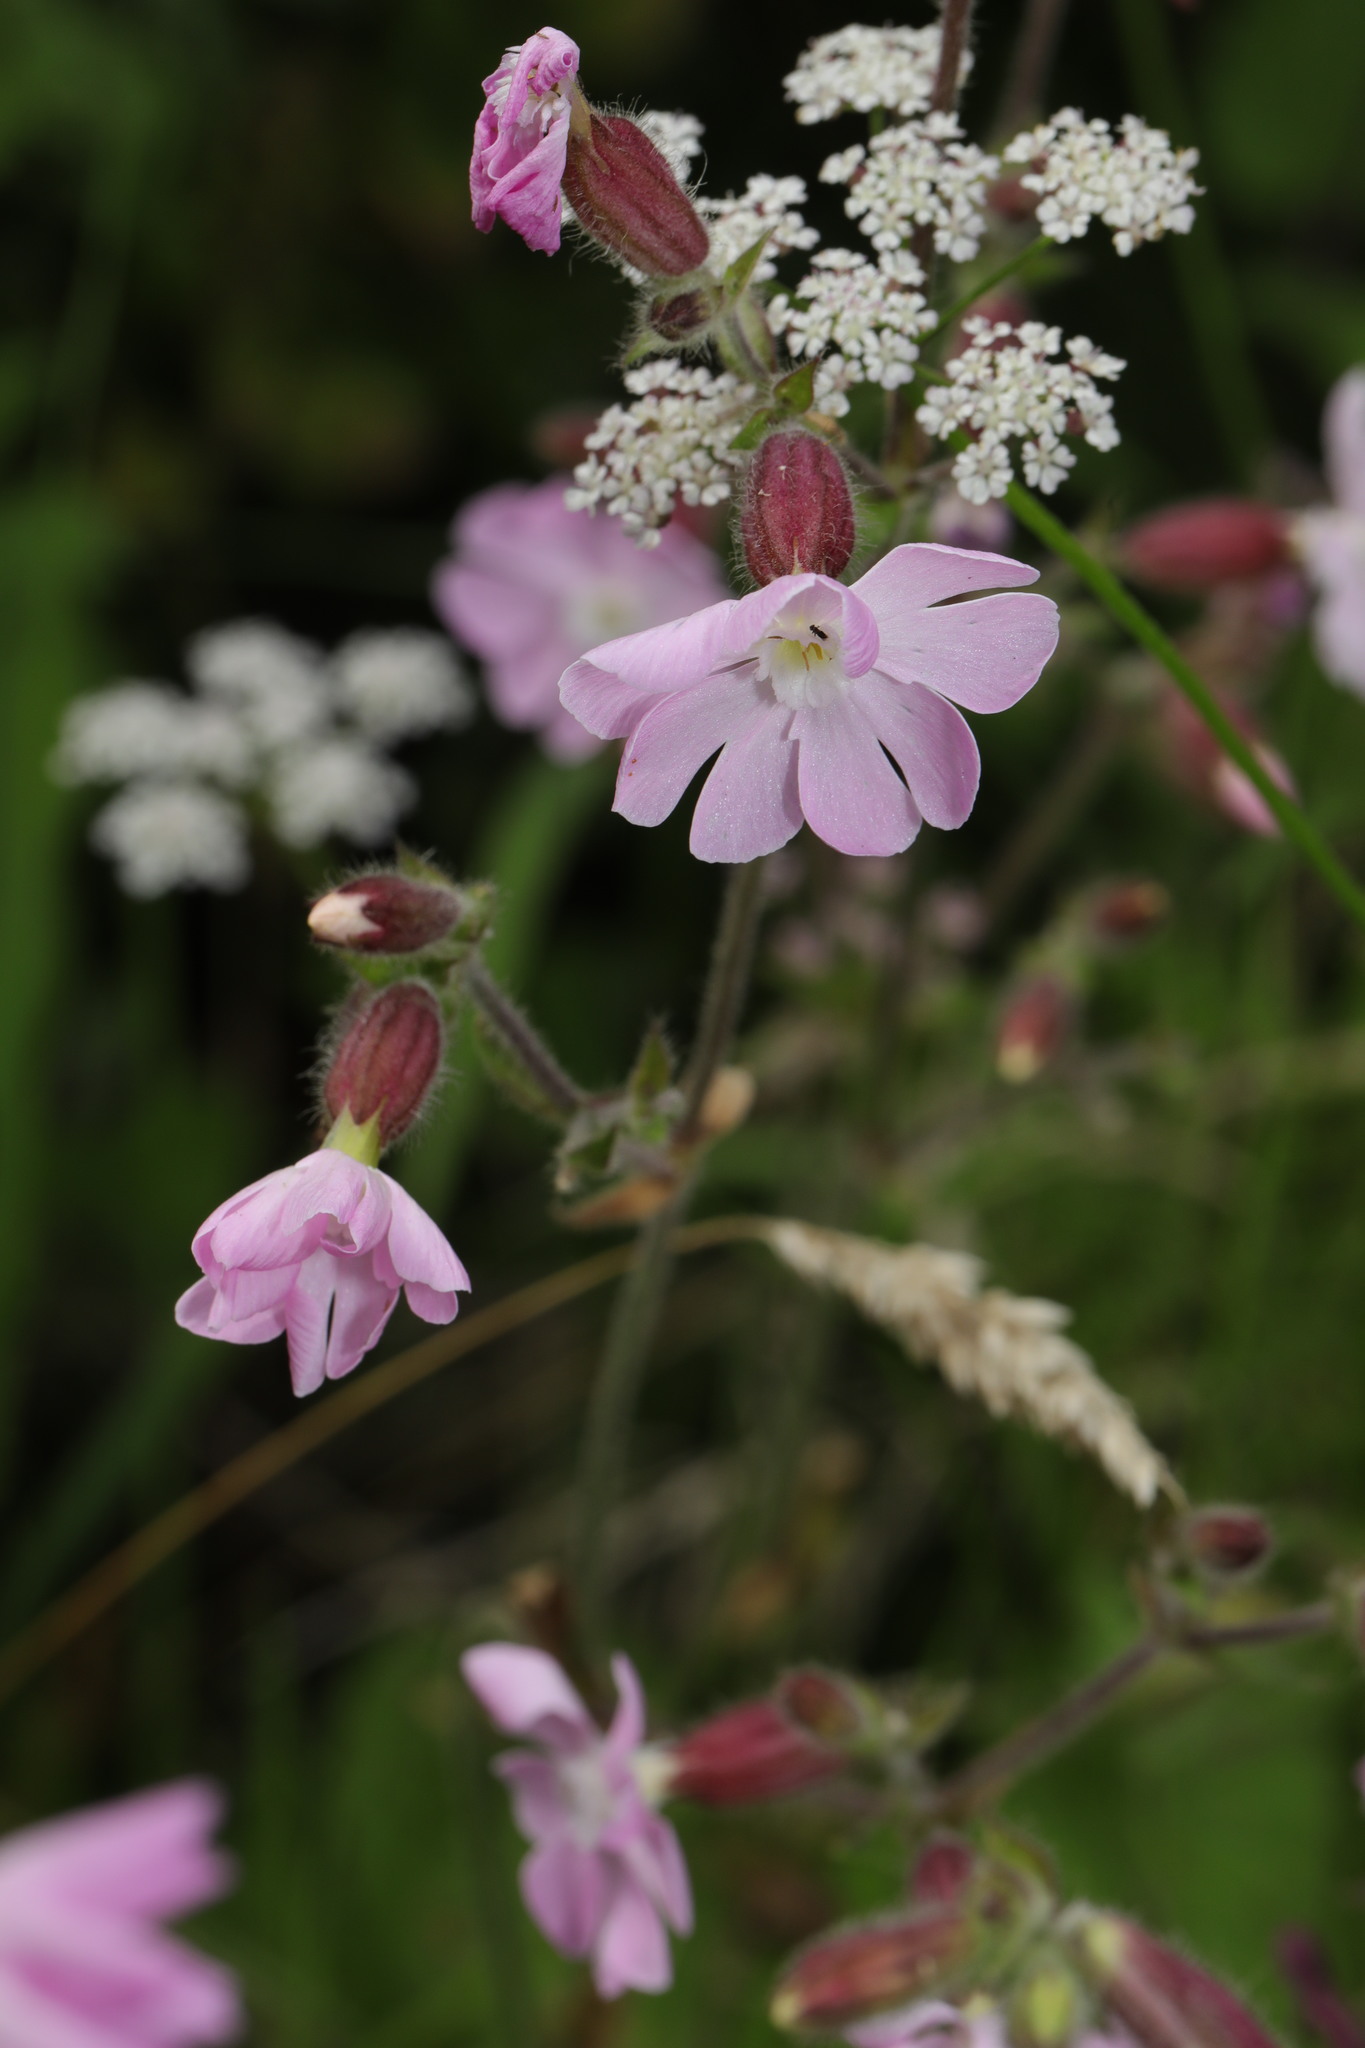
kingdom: Plantae
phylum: Tracheophyta
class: Magnoliopsida
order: Caryophyllales
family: Caryophyllaceae
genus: Silene
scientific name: Silene dioica
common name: Red campion
